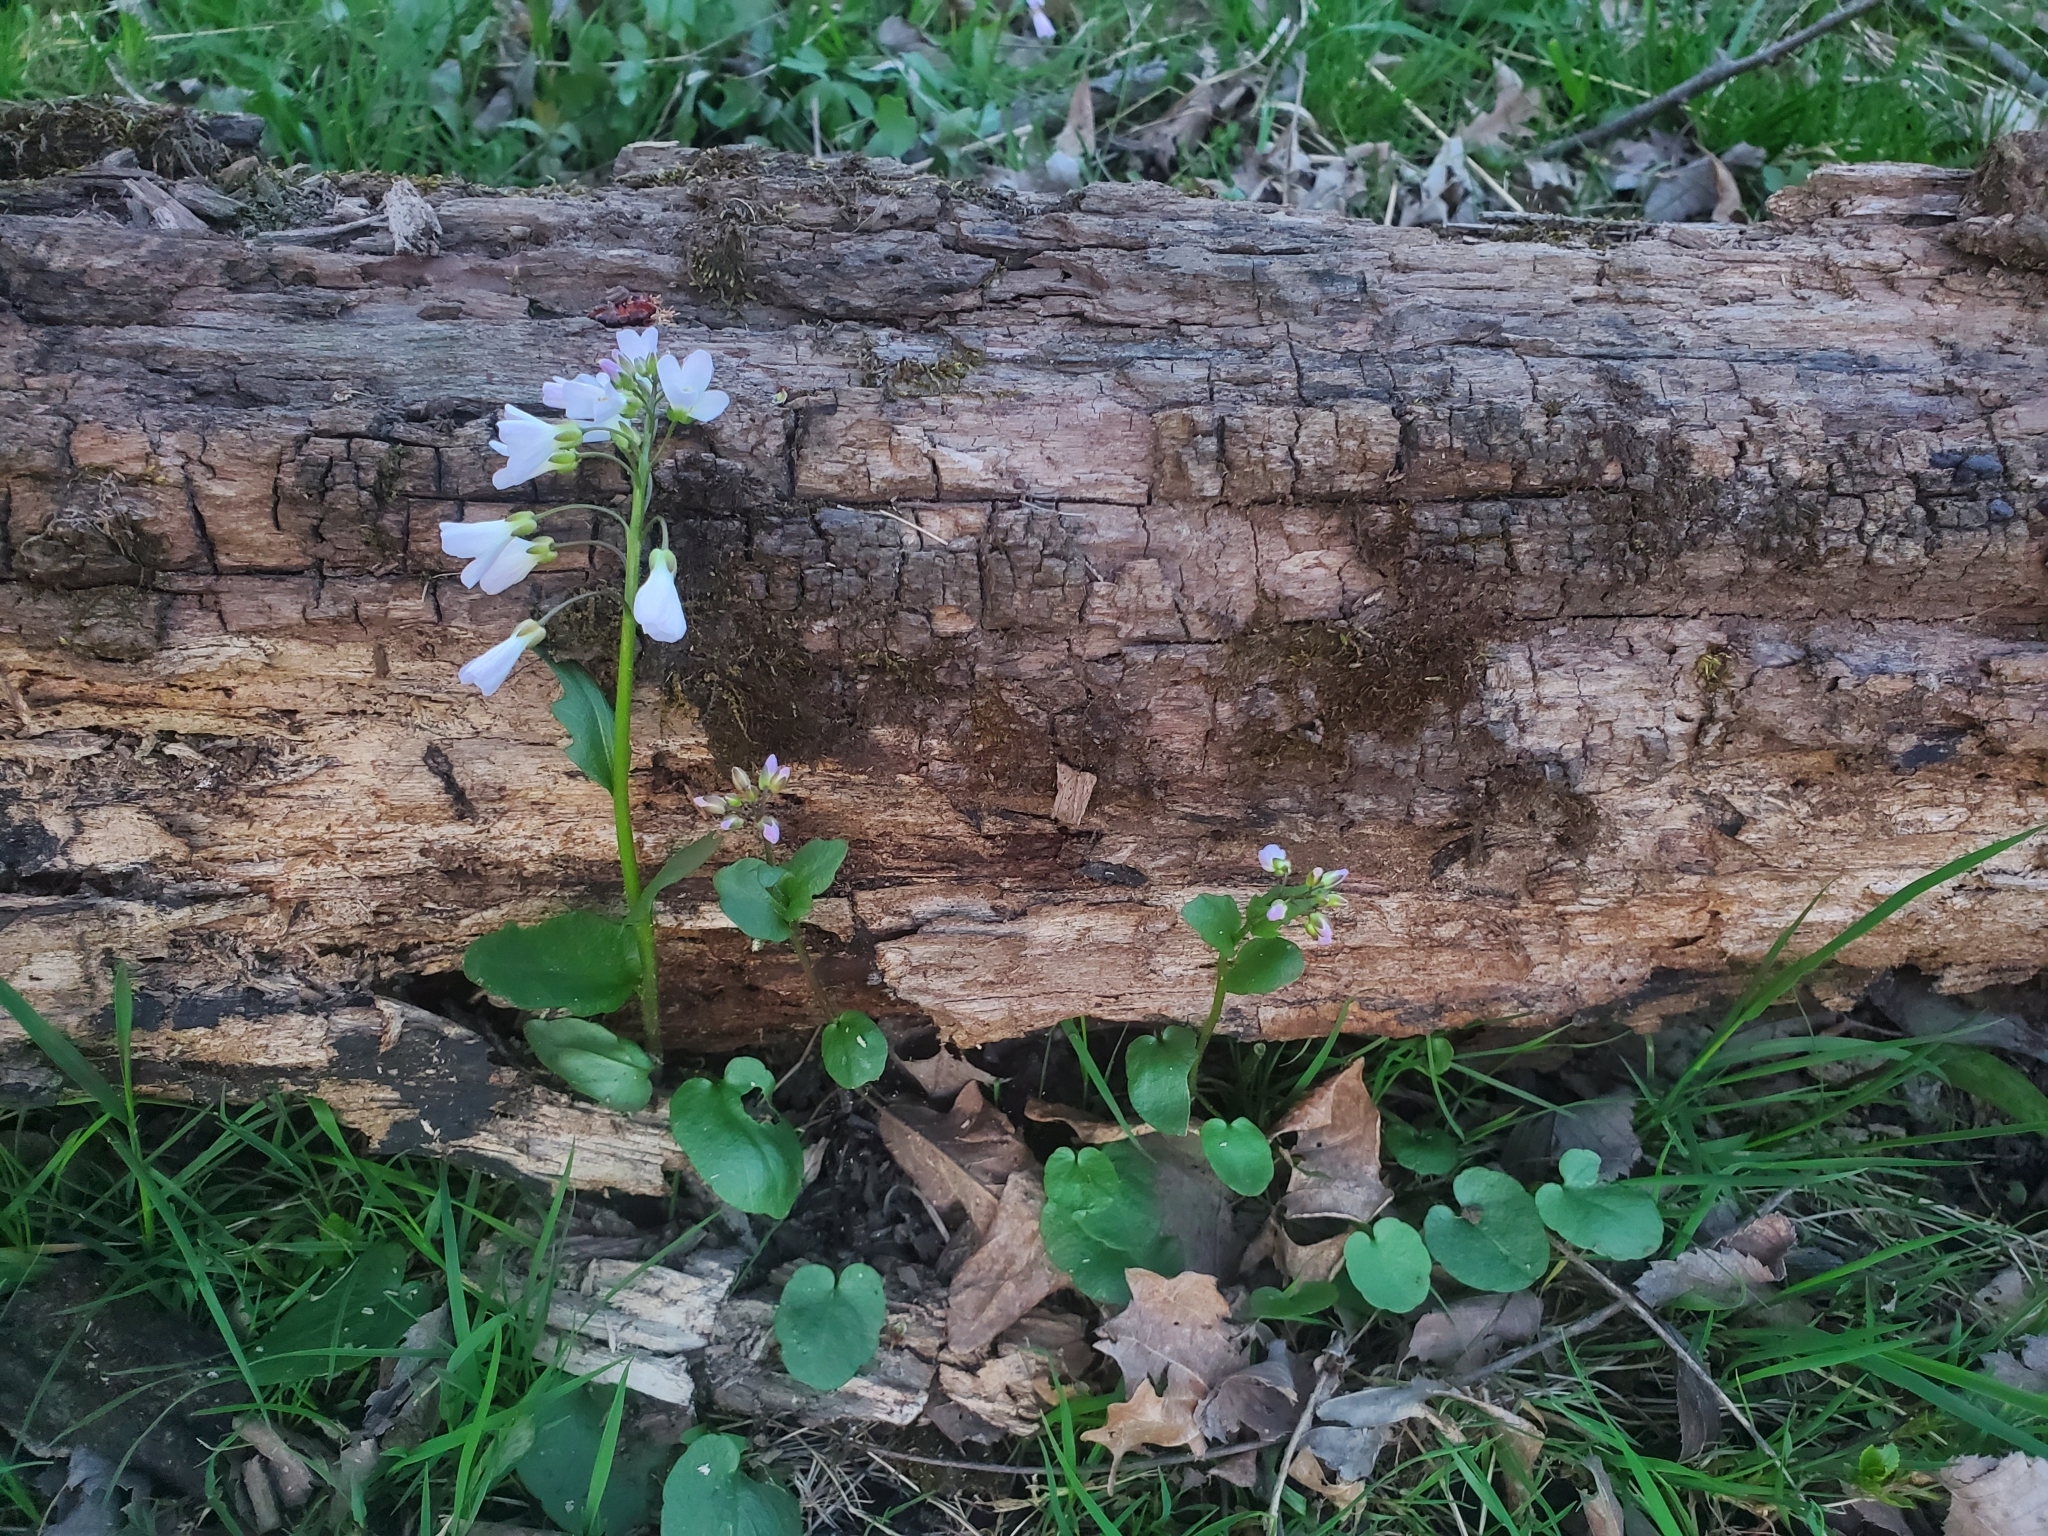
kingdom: Plantae
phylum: Tracheophyta
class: Magnoliopsida
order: Brassicales
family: Brassicaceae
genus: Cardamine
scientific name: Cardamine douglassii
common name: Purple cress
